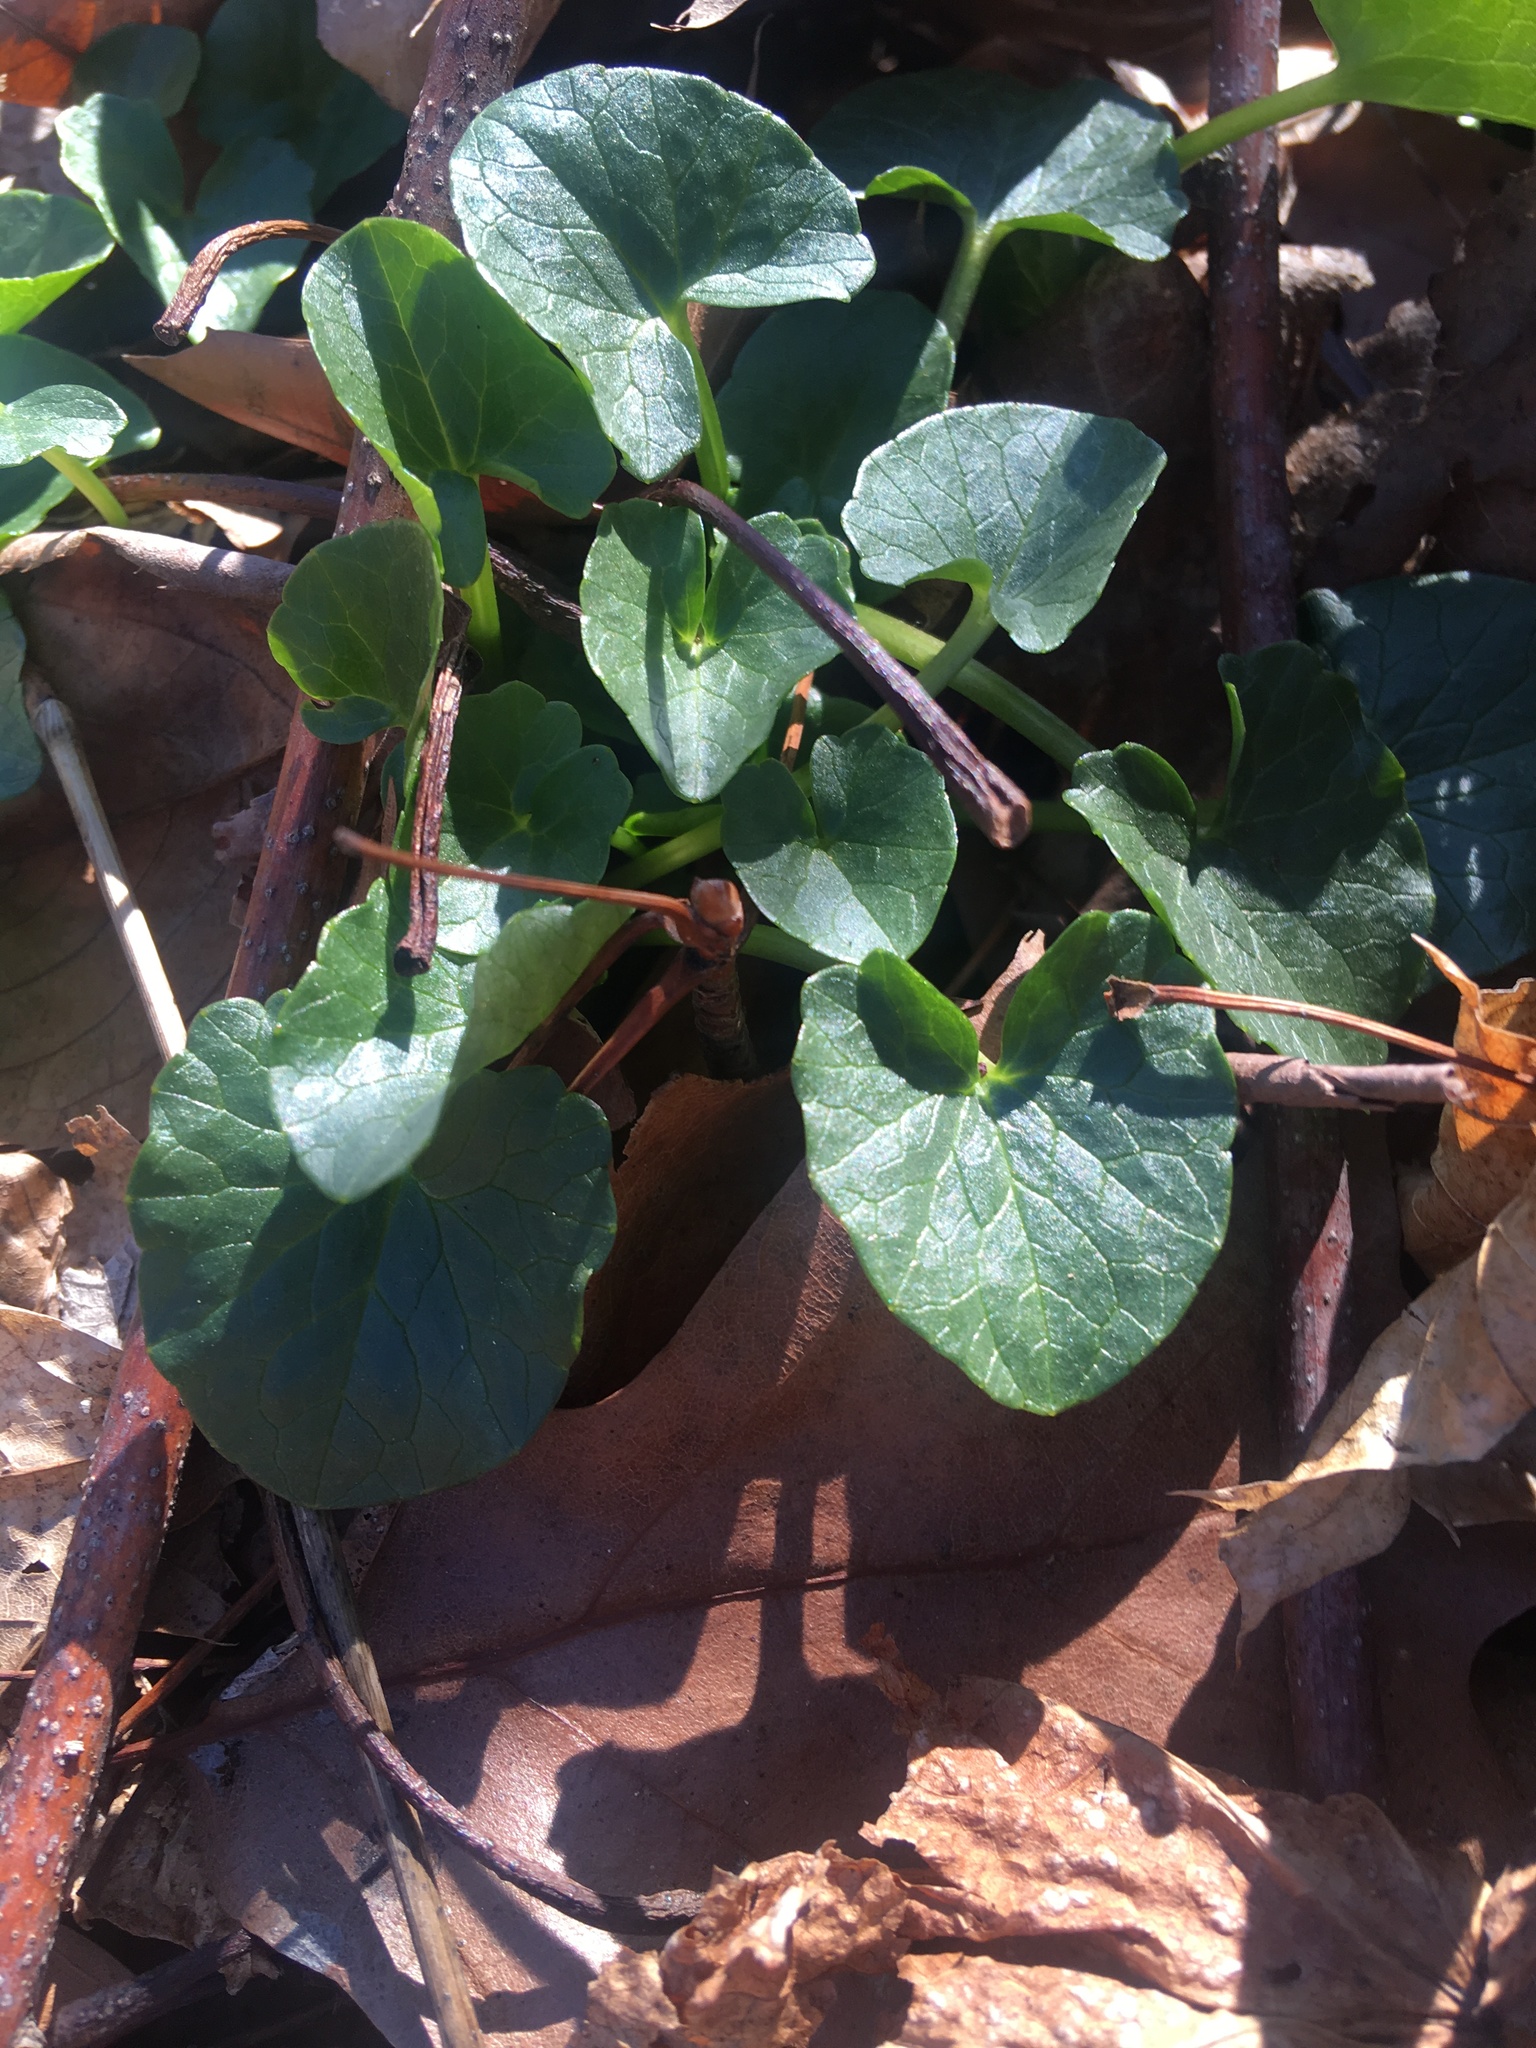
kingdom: Plantae
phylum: Tracheophyta
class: Magnoliopsida
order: Ranunculales
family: Ranunculaceae
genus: Ficaria
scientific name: Ficaria verna
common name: Lesser celandine
